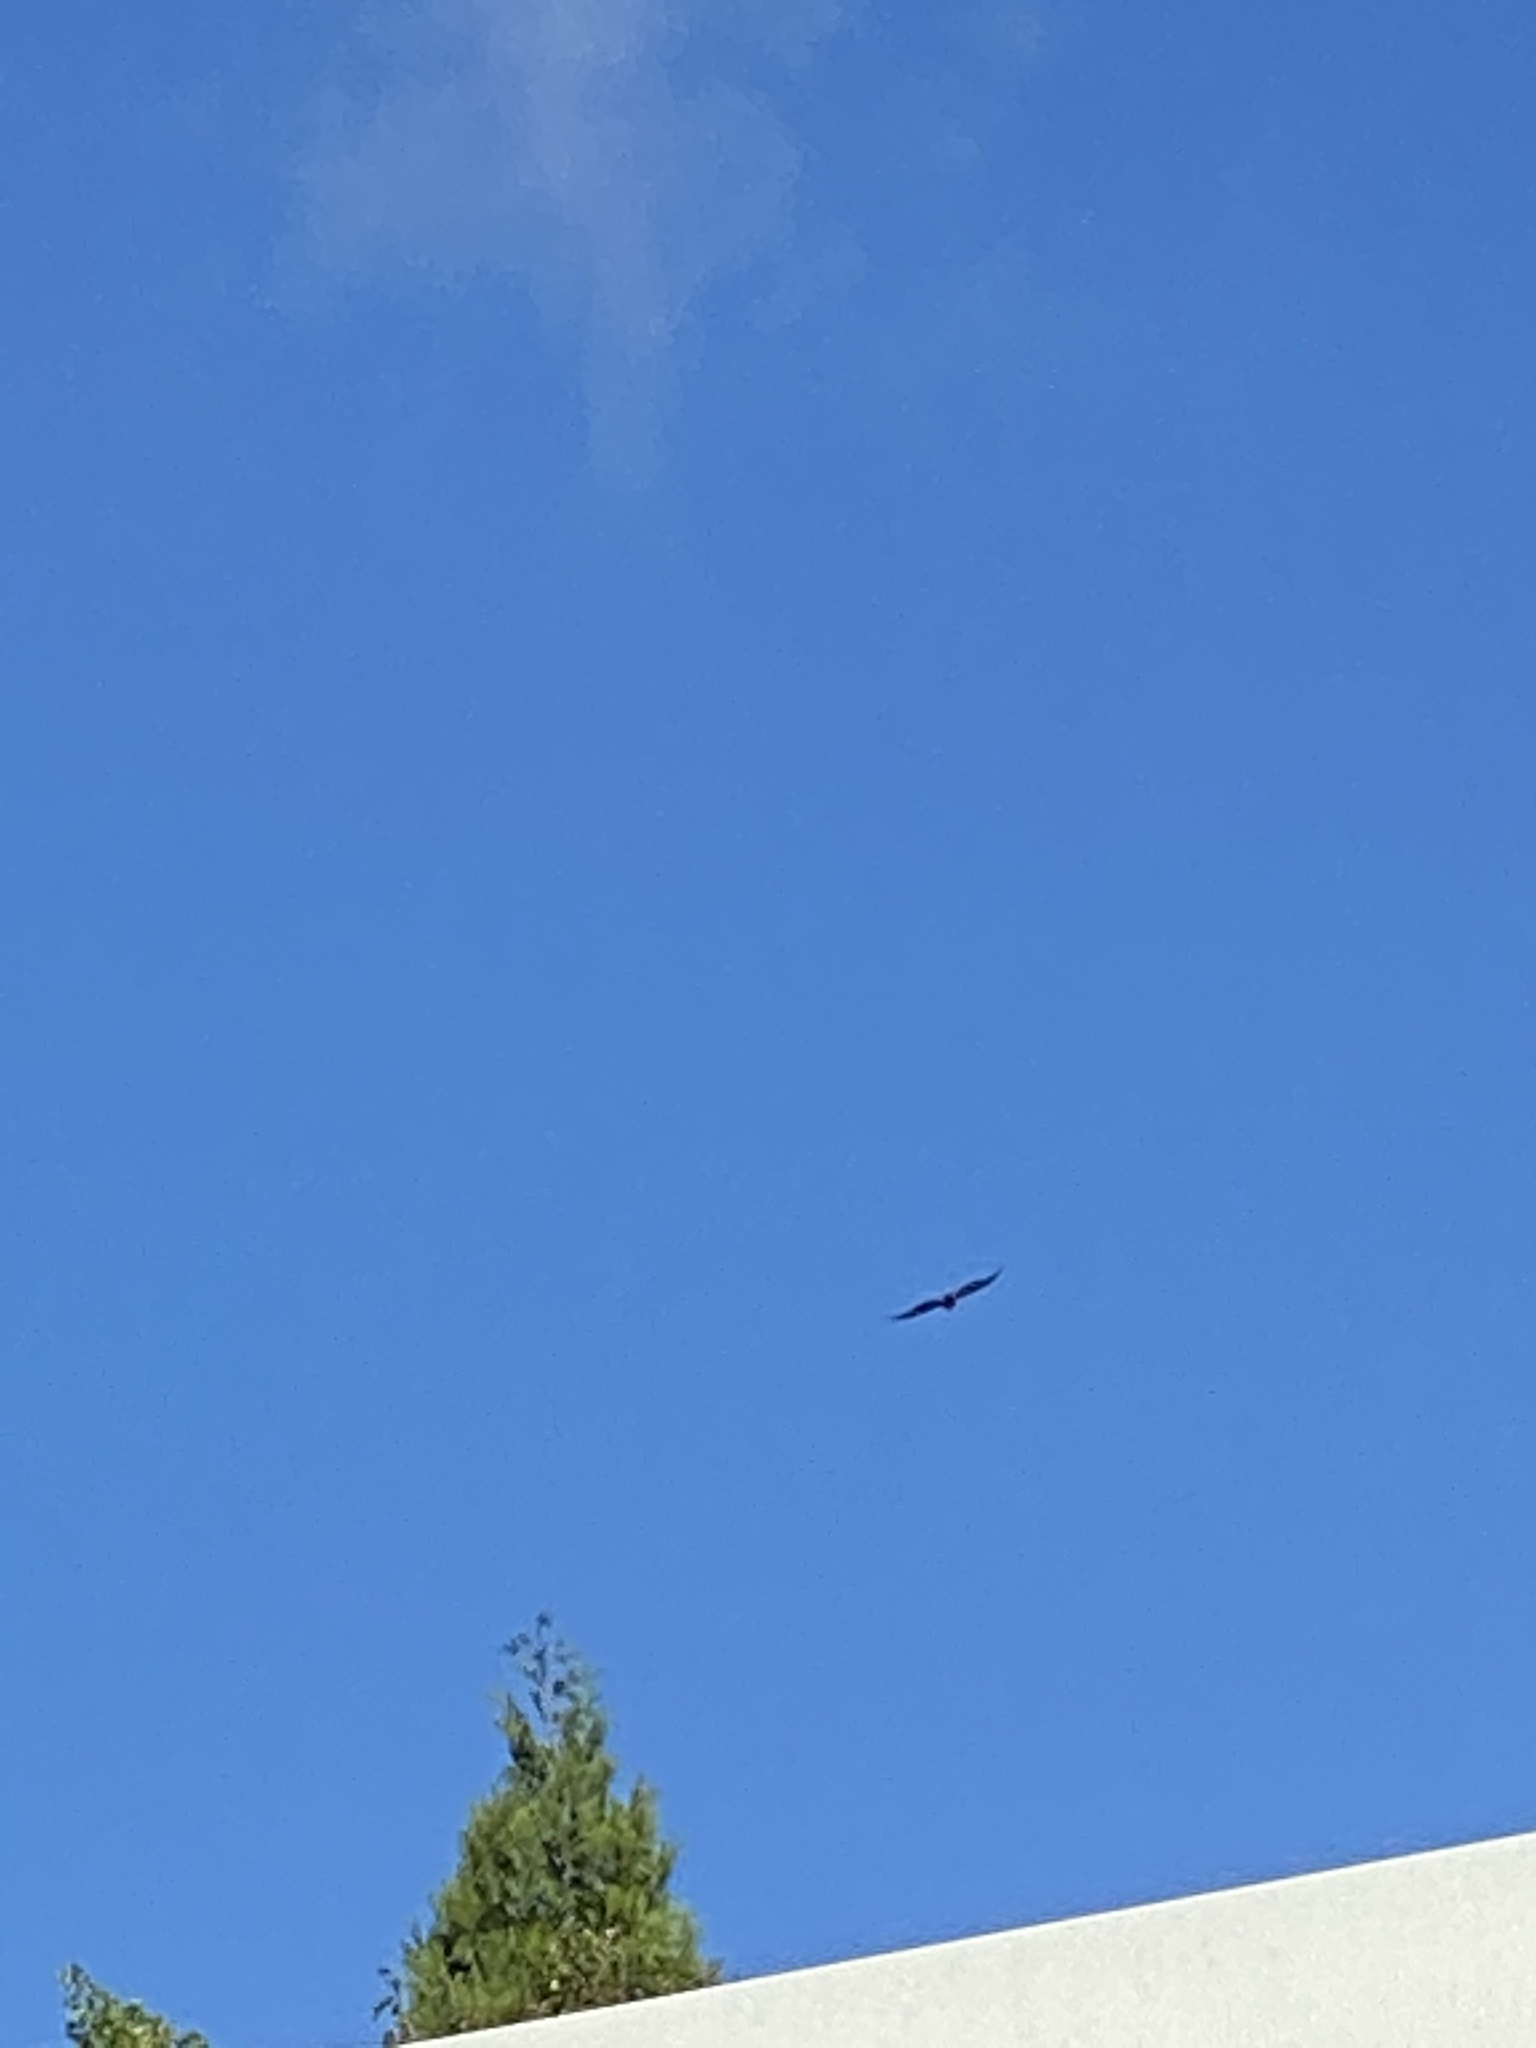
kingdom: Animalia
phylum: Chordata
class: Aves
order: Accipitriformes
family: Accipitridae
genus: Buteo
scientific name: Buteo jamaicensis
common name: Red-tailed hawk
